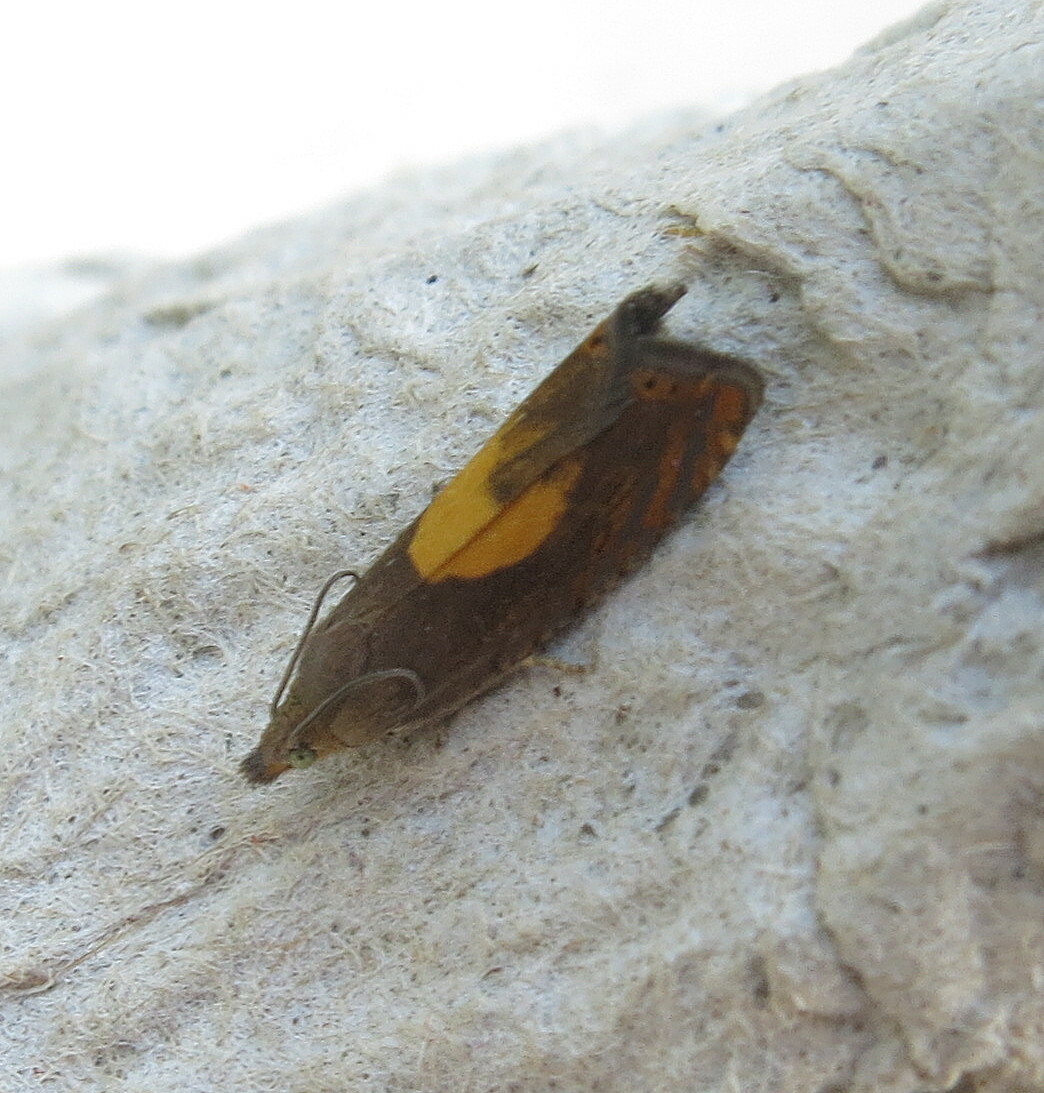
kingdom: Animalia
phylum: Arthropoda
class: Insecta
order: Lepidoptera
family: Tortricidae
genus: Dichrorampha
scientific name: Dichrorampha petiverella
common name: Common drill
